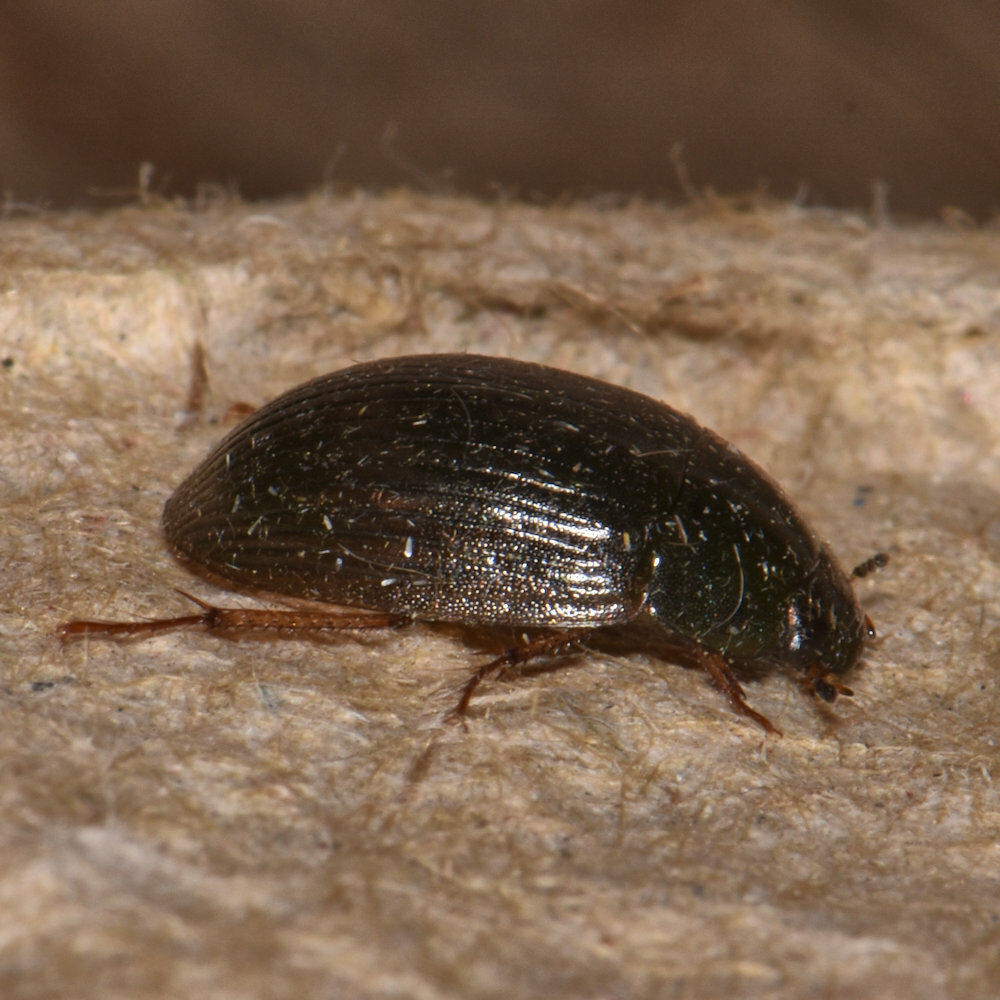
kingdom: Animalia
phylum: Arthropoda
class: Insecta
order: Coleoptera
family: Hydrophilidae
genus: Hydrobius
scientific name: Hydrobius fuscipes
